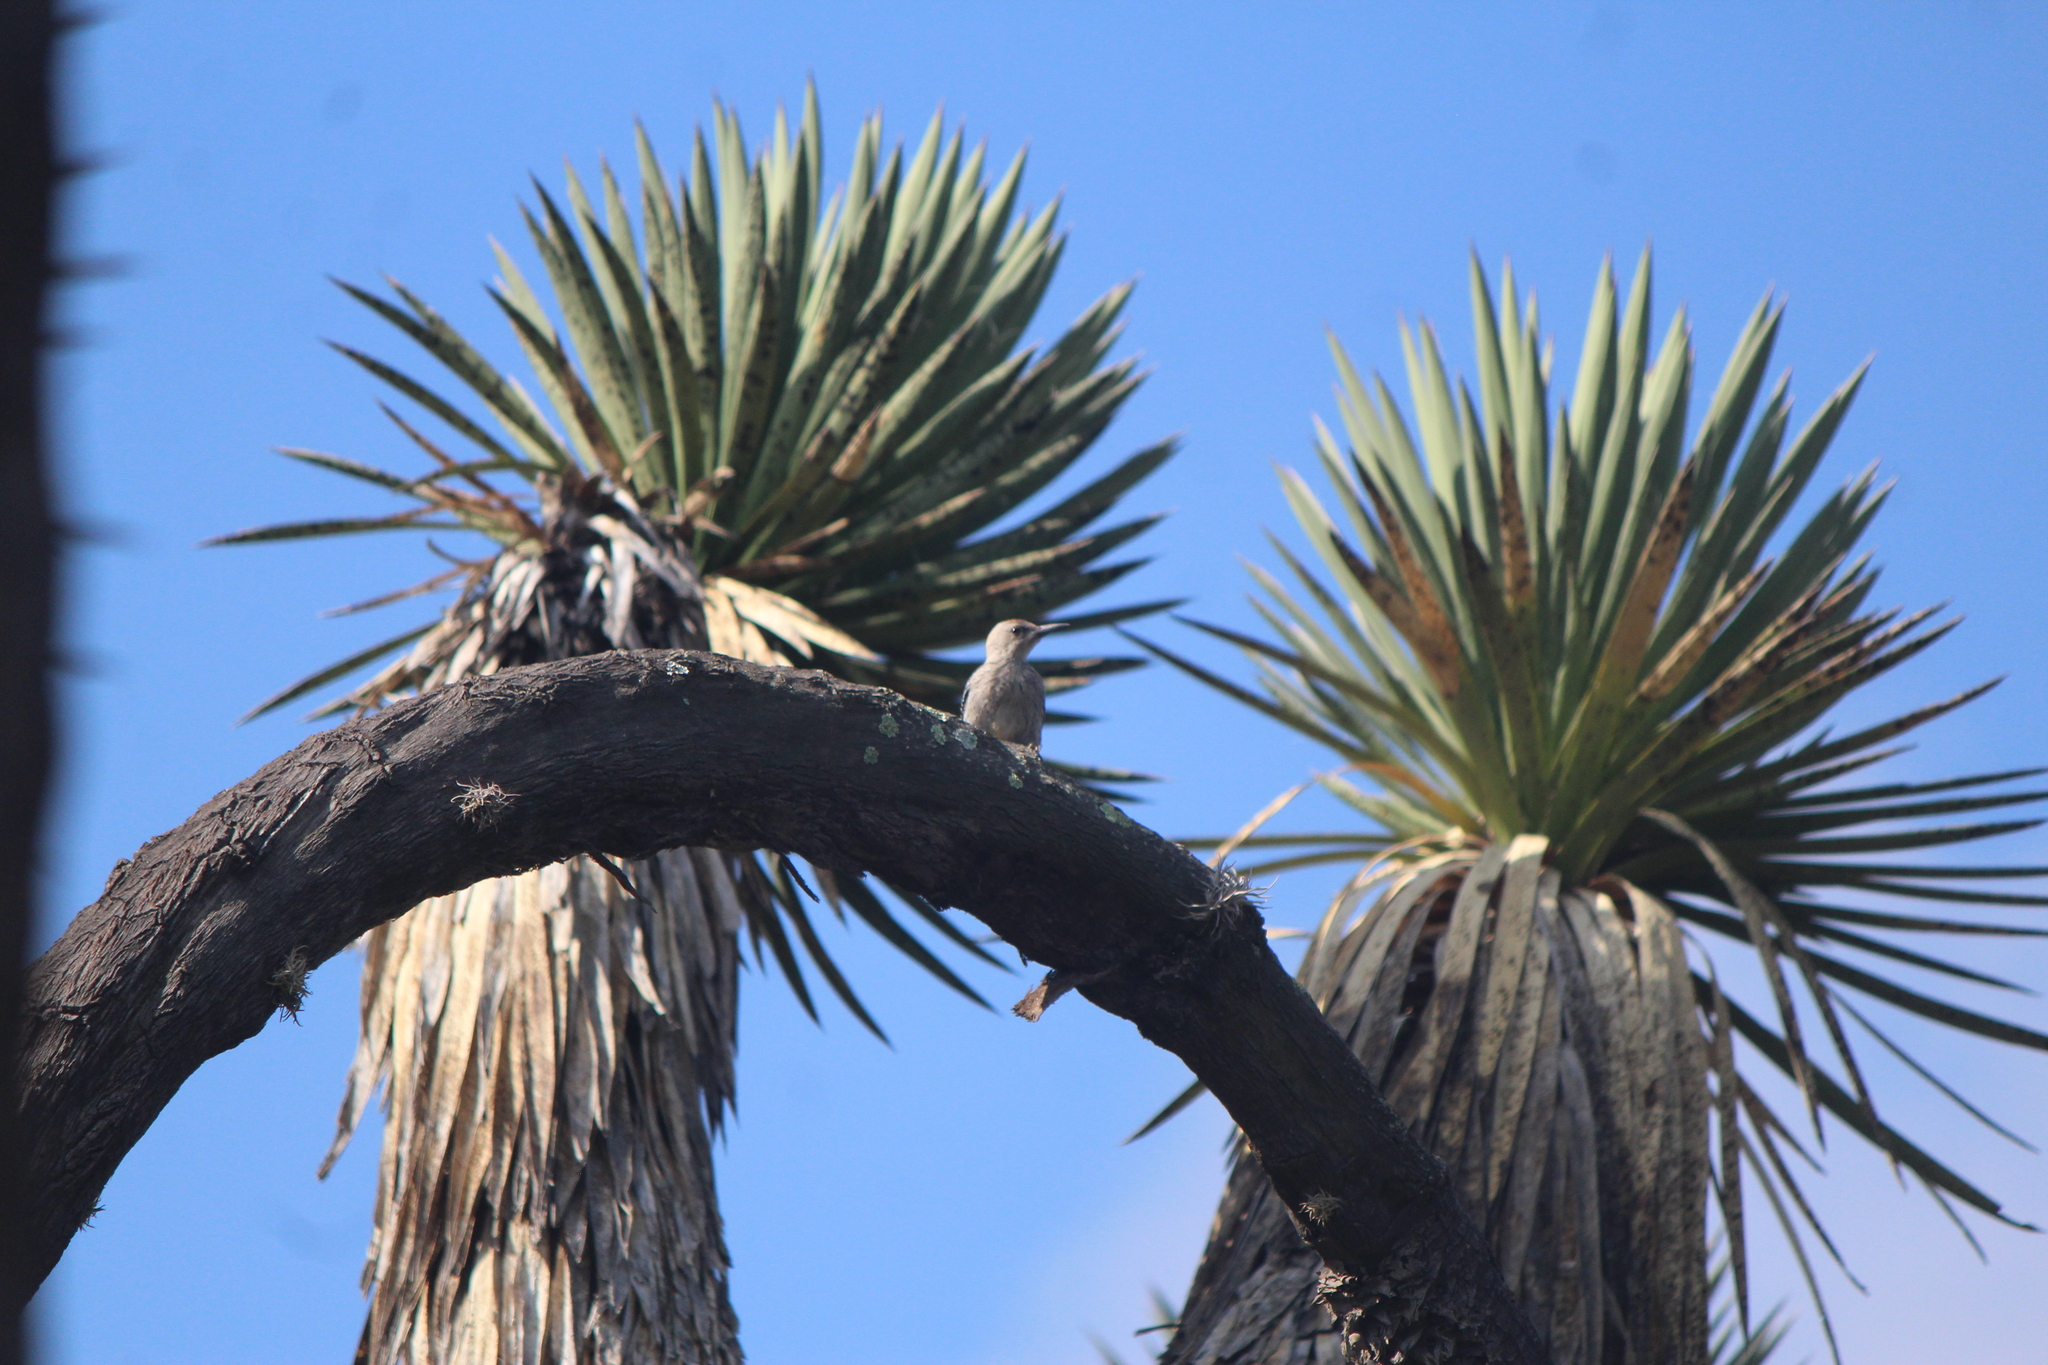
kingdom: Animalia
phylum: Chordata
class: Aves
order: Piciformes
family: Picidae
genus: Melanerpes
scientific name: Melanerpes aurifrons
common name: Golden-fronted woodpecker
